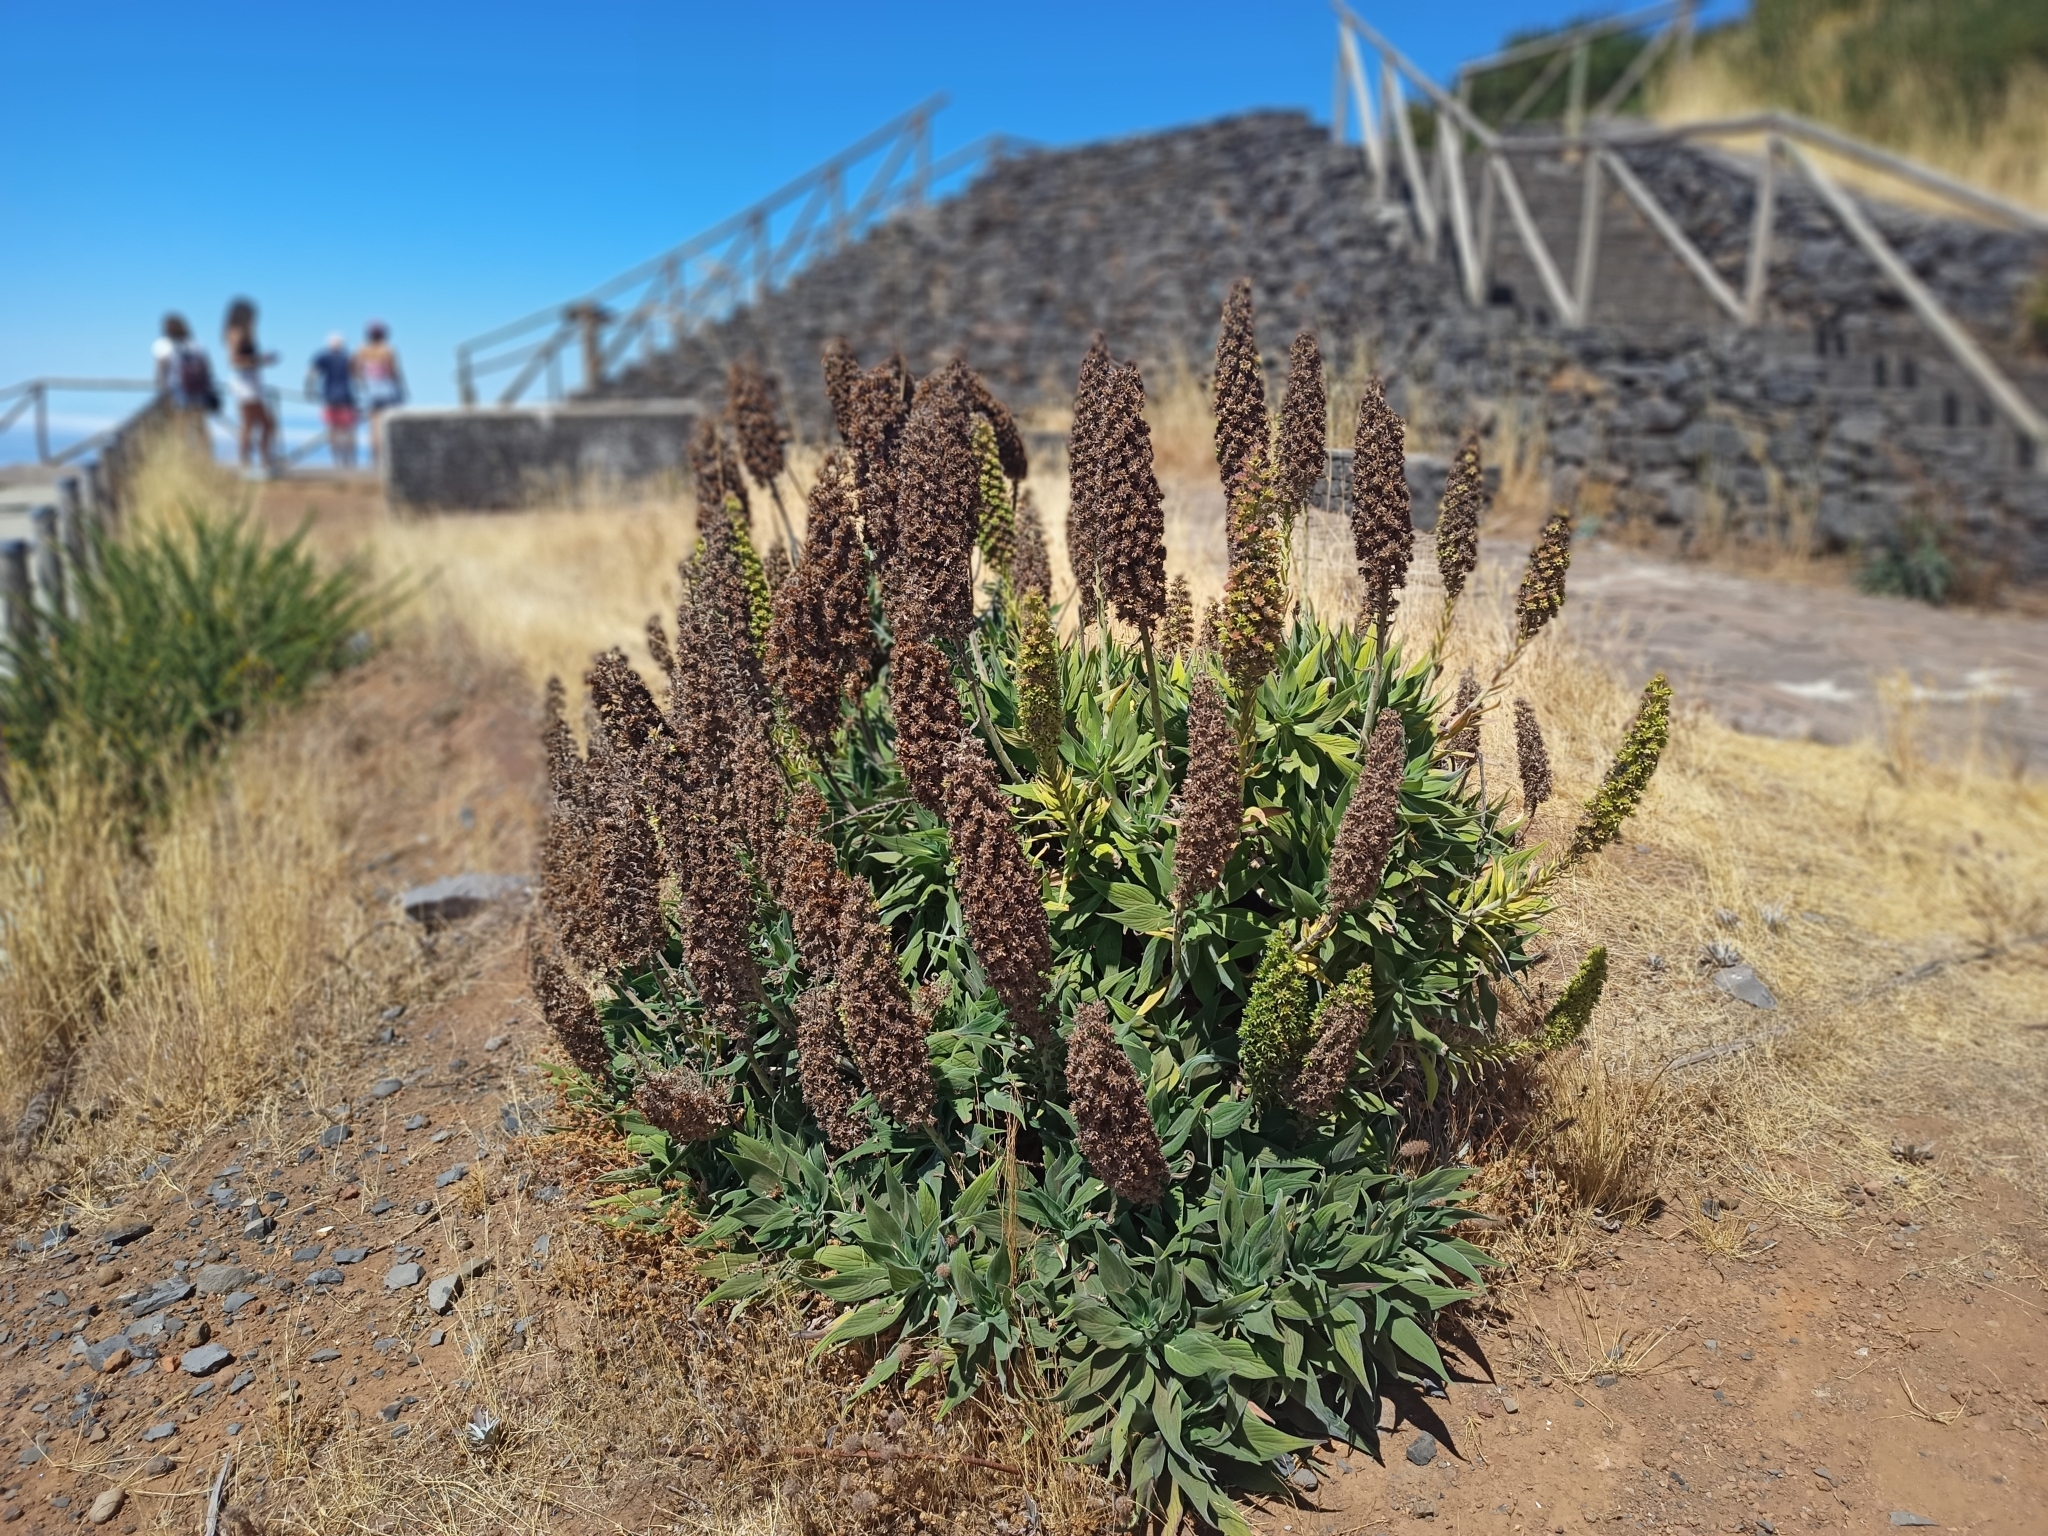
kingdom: Plantae
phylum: Tracheophyta
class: Magnoliopsida
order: Boraginales
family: Boraginaceae
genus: Echium
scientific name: Echium candicans
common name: Pride of madeira
